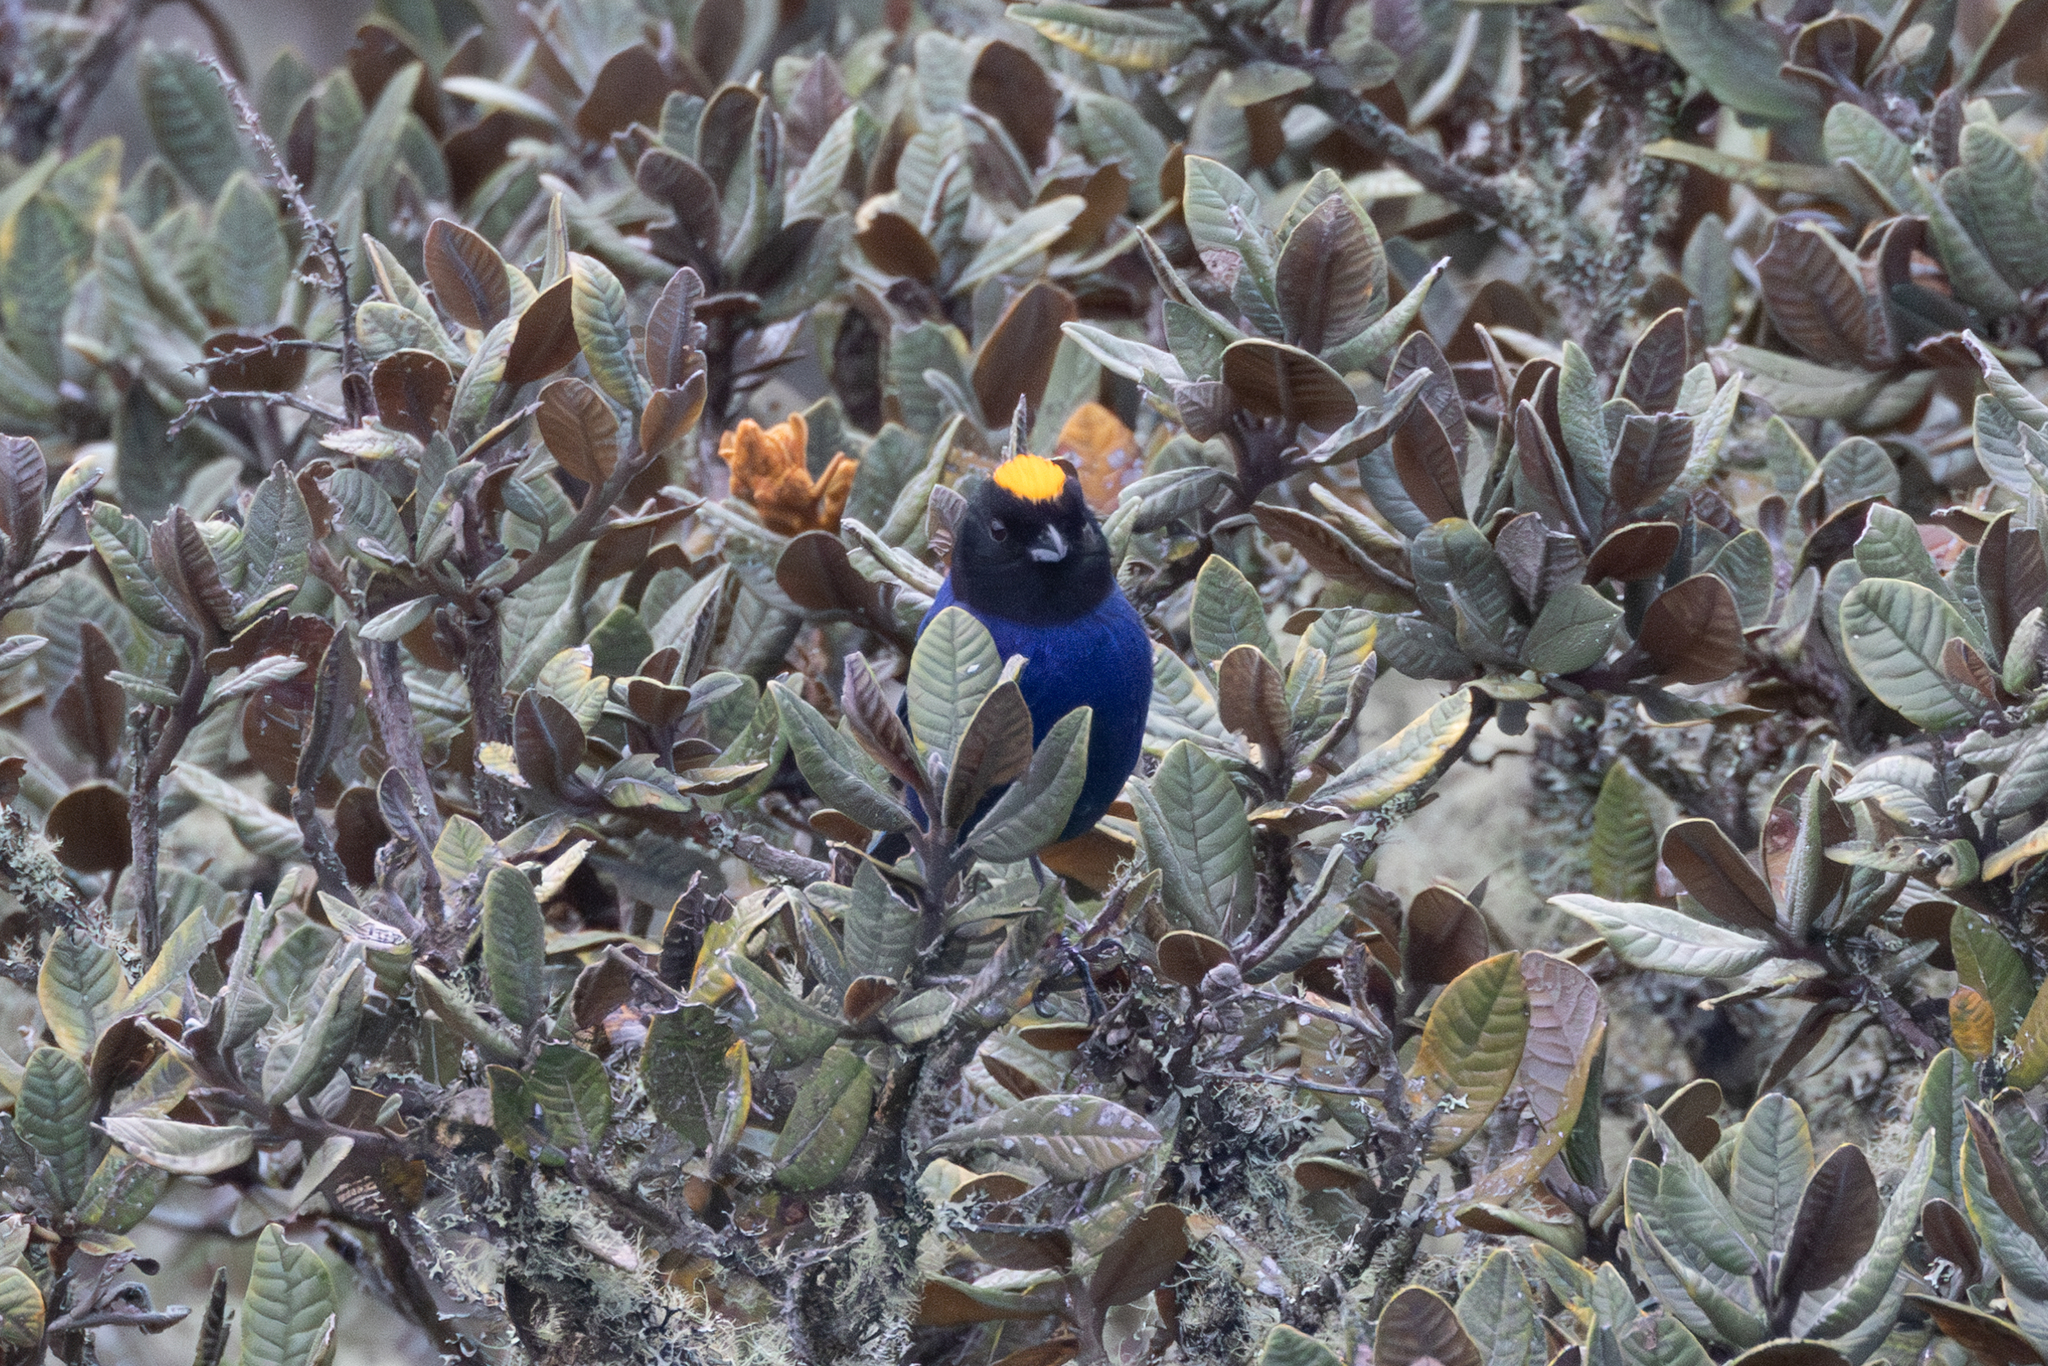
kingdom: Animalia
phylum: Chordata
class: Aves
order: Passeriformes
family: Thraupidae
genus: Iridosornis
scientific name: Iridosornis rufivertex
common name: Golden-crowned tanager
